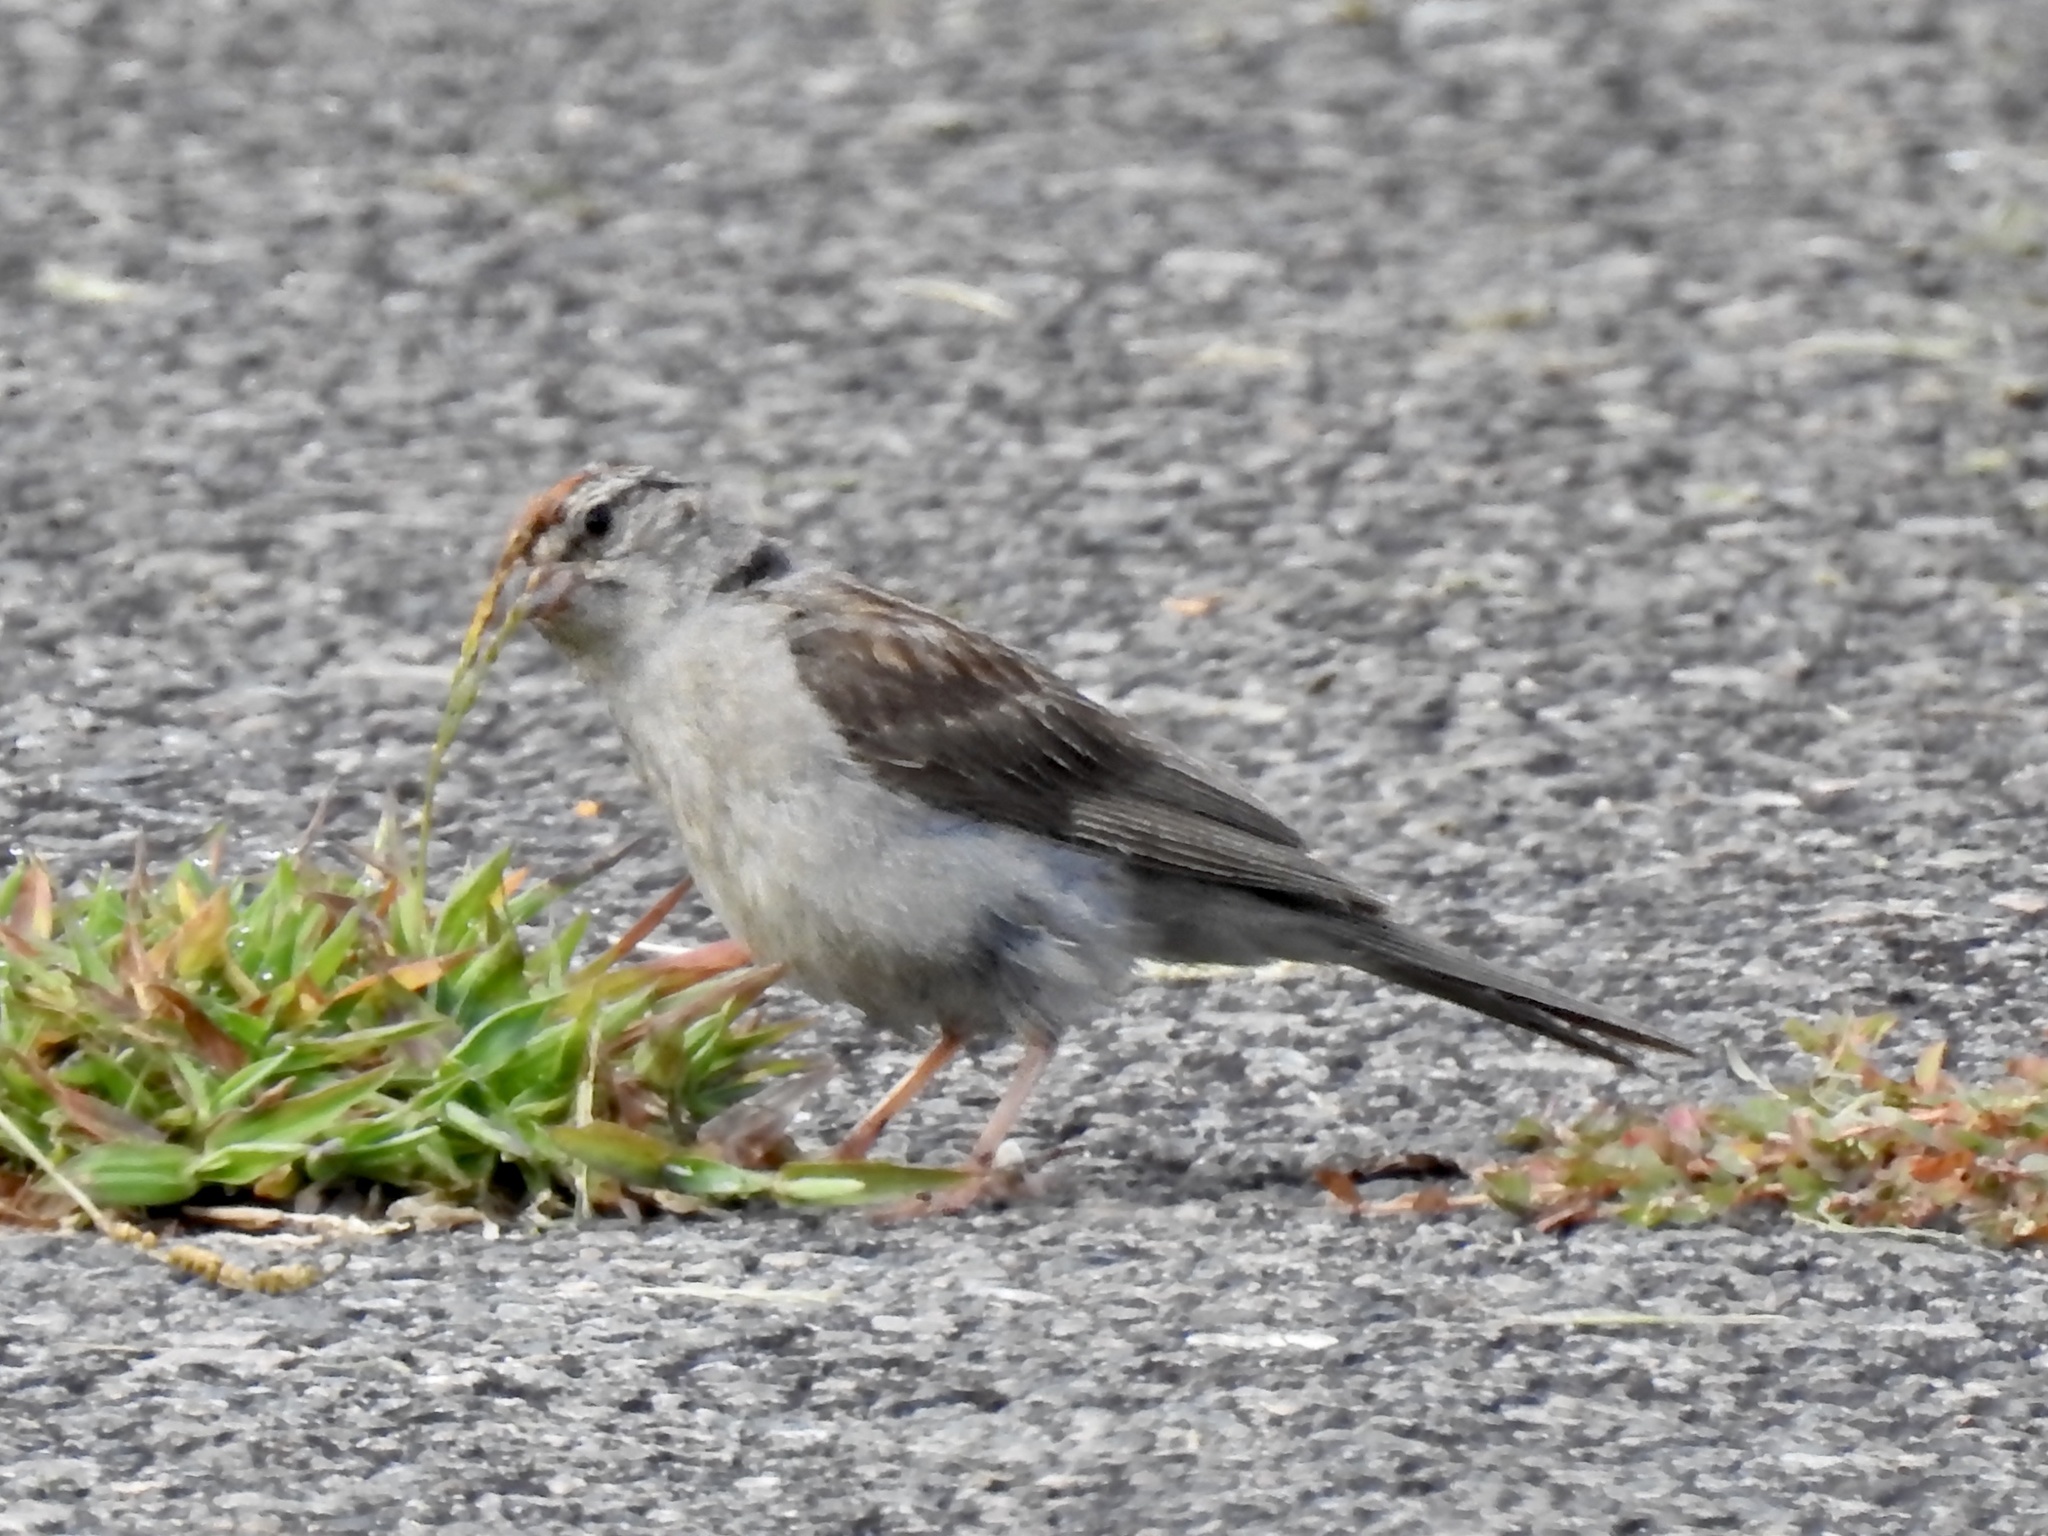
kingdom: Animalia
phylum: Chordata
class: Aves
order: Passeriformes
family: Passerellidae
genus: Spizella
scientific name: Spizella passerina
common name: Chipping sparrow
